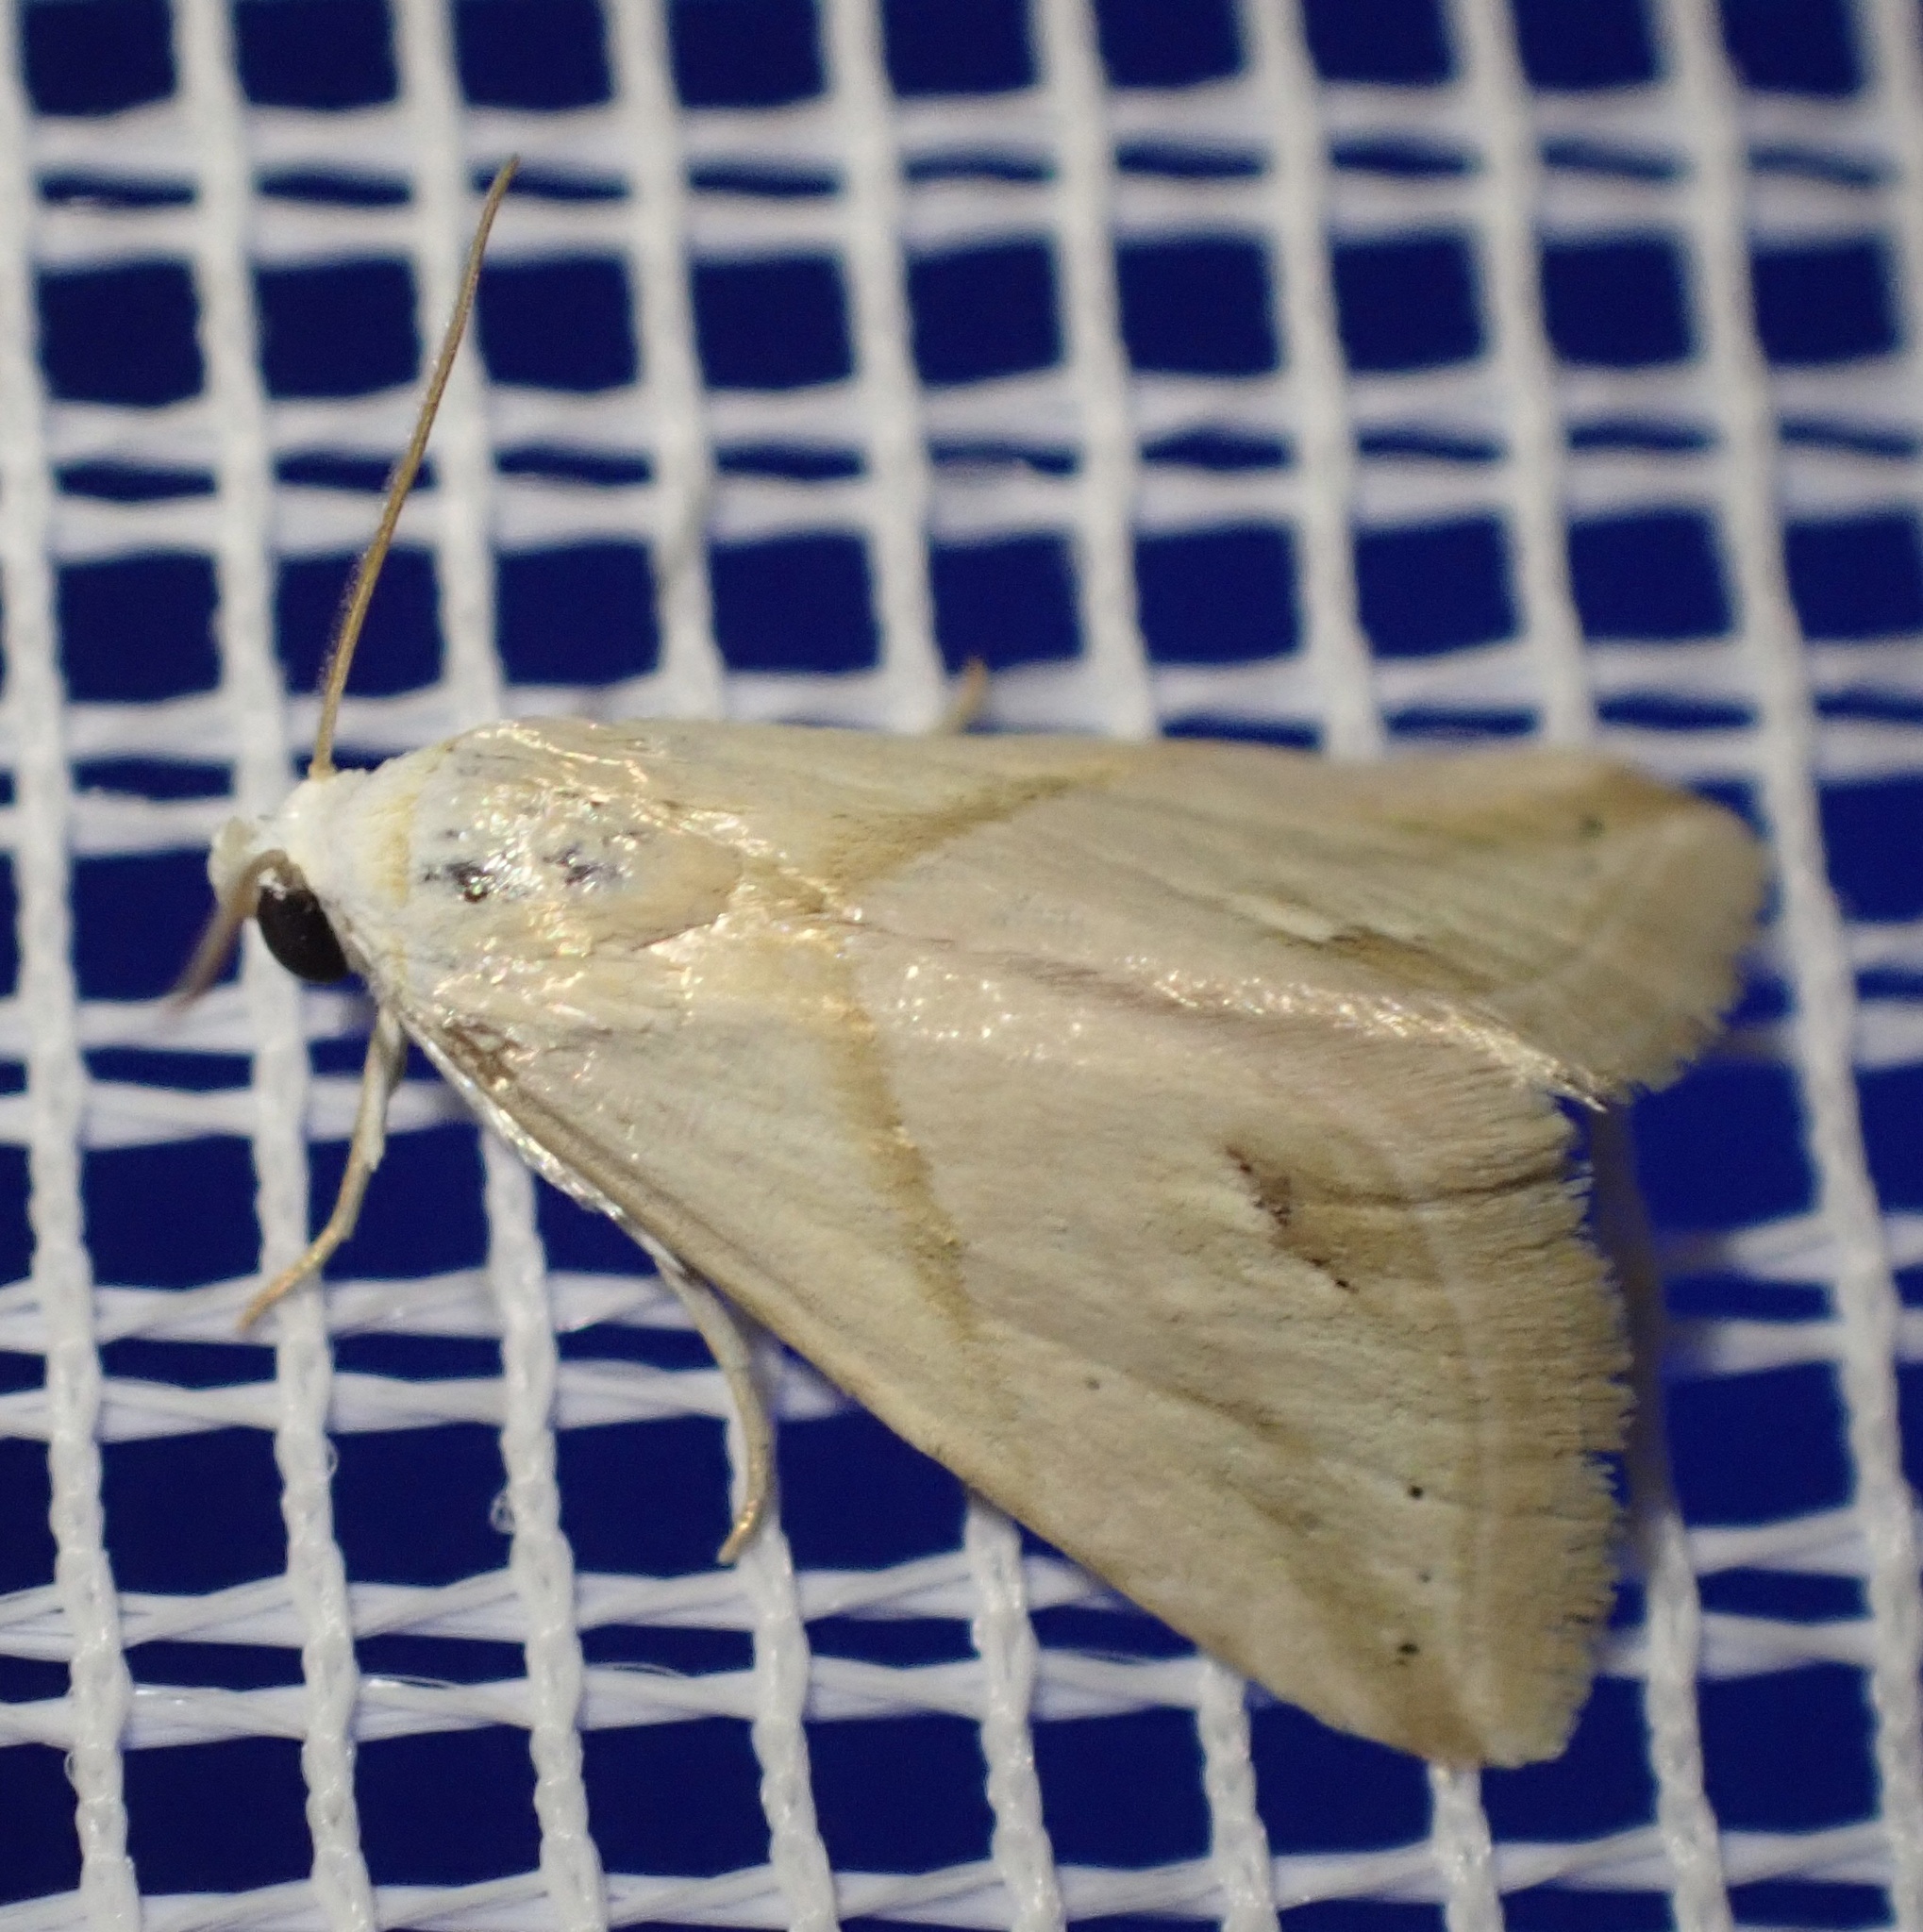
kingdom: Animalia
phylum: Arthropoda
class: Insecta
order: Lepidoptera
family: Noctuidae
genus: Eublemma
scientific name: Eublemma cochylioides
